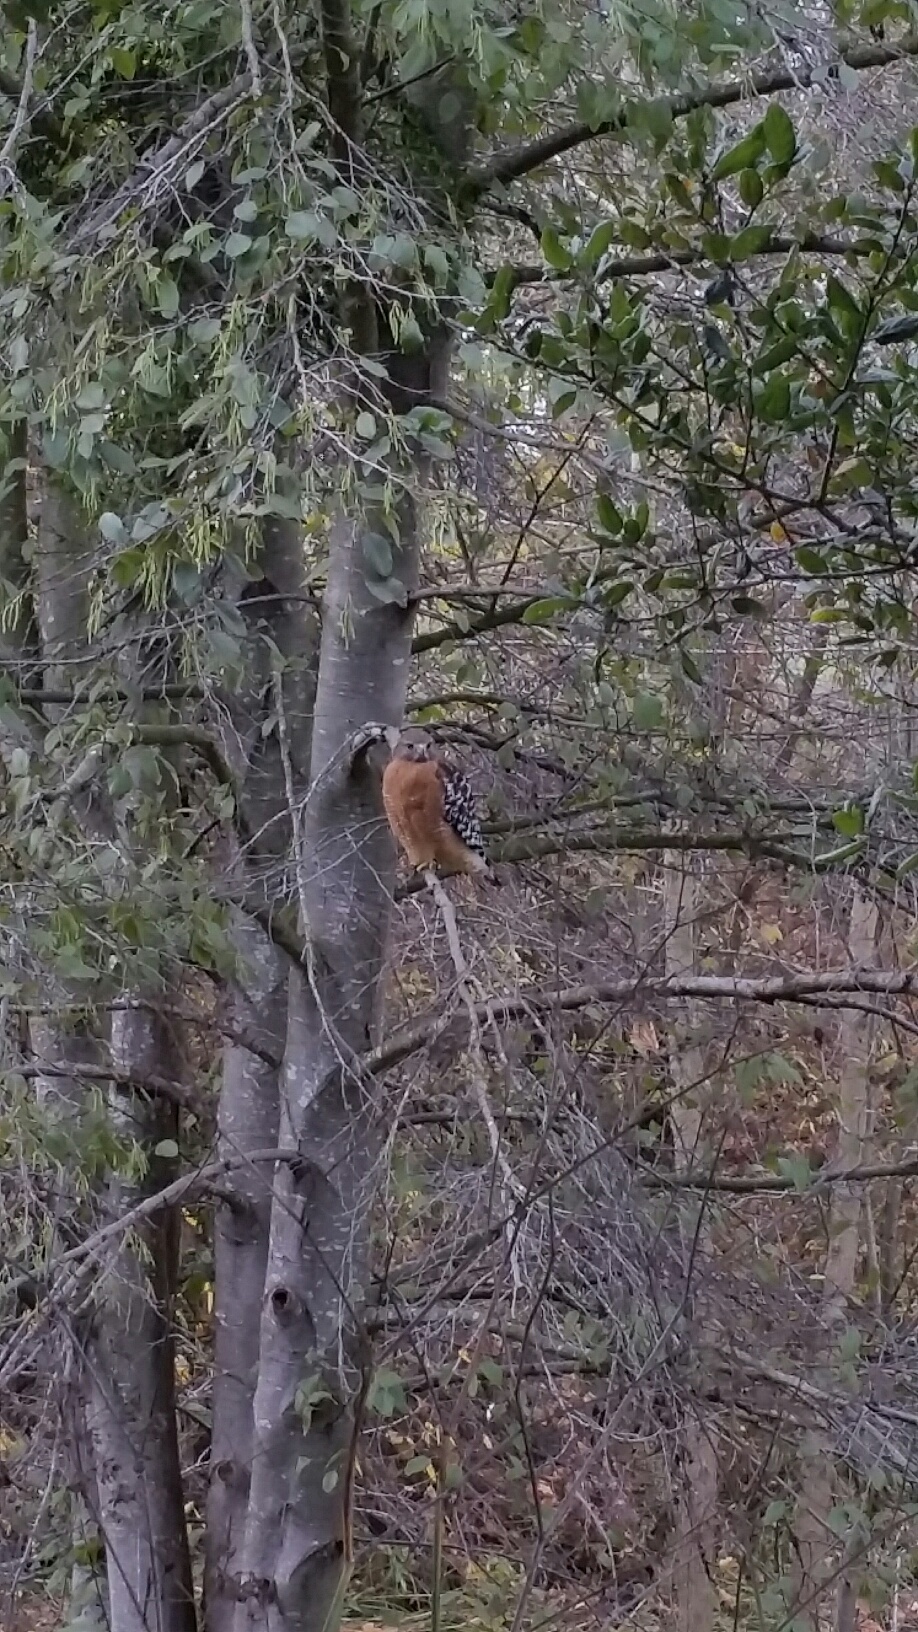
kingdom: Animalia
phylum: Chordata
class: Aves
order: Accipitriformes
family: Accipitridae
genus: Buteo
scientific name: Buteo lineatus
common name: Red-shouldered hawk
